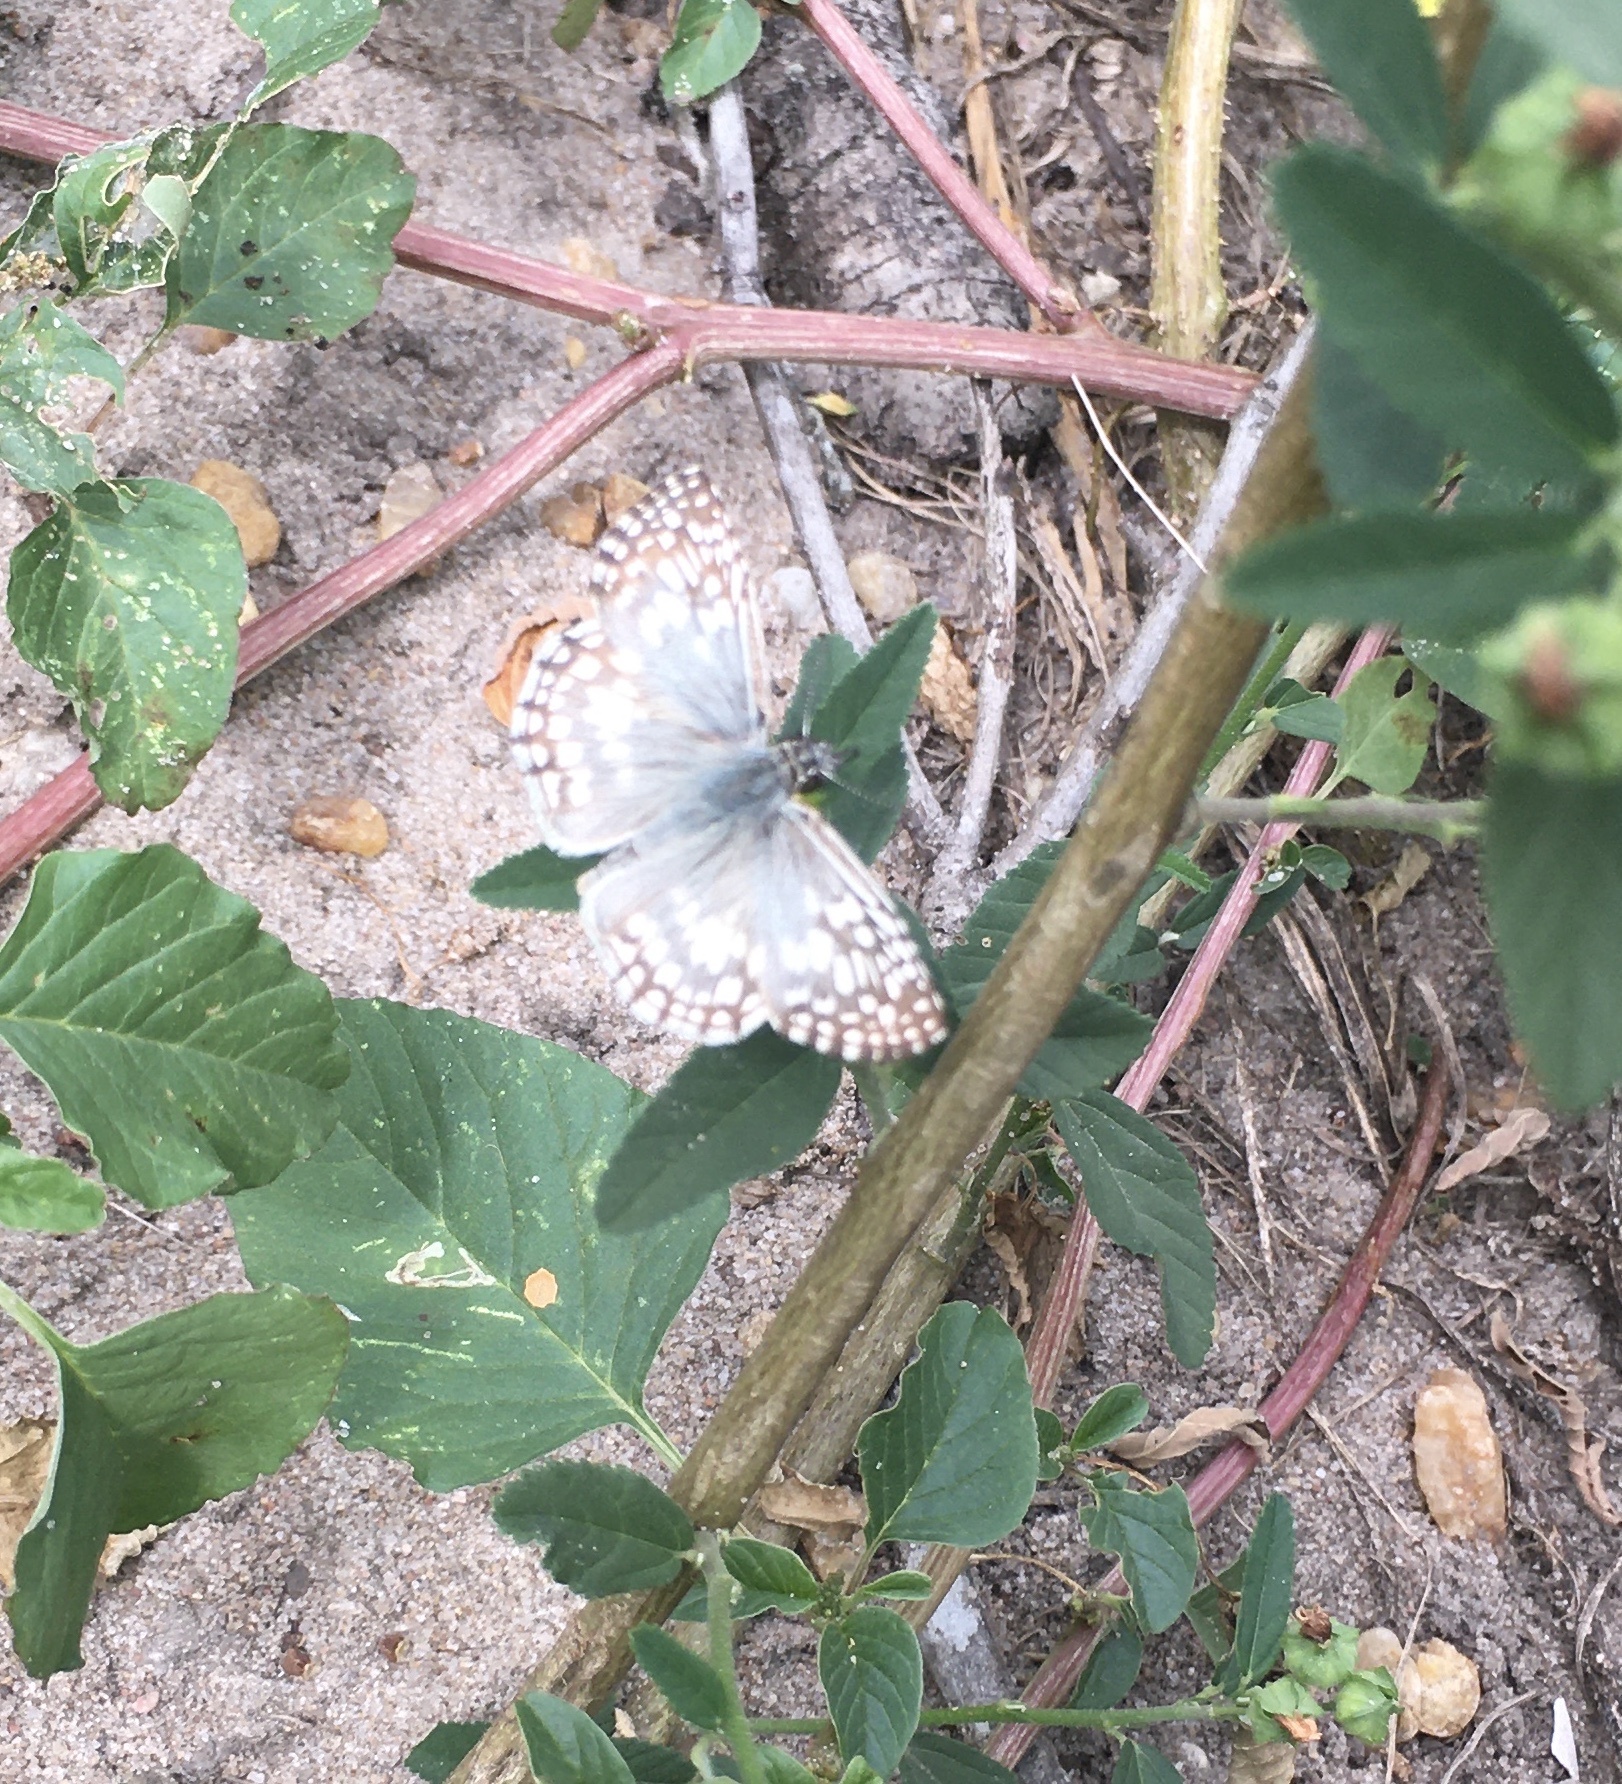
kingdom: Animalia
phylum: Arthropoda
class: Insecta
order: Lepidoptera
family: Hesperiidae
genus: Pyrgus
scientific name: Pyrgus oileus
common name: Tropical checkered-skipper
